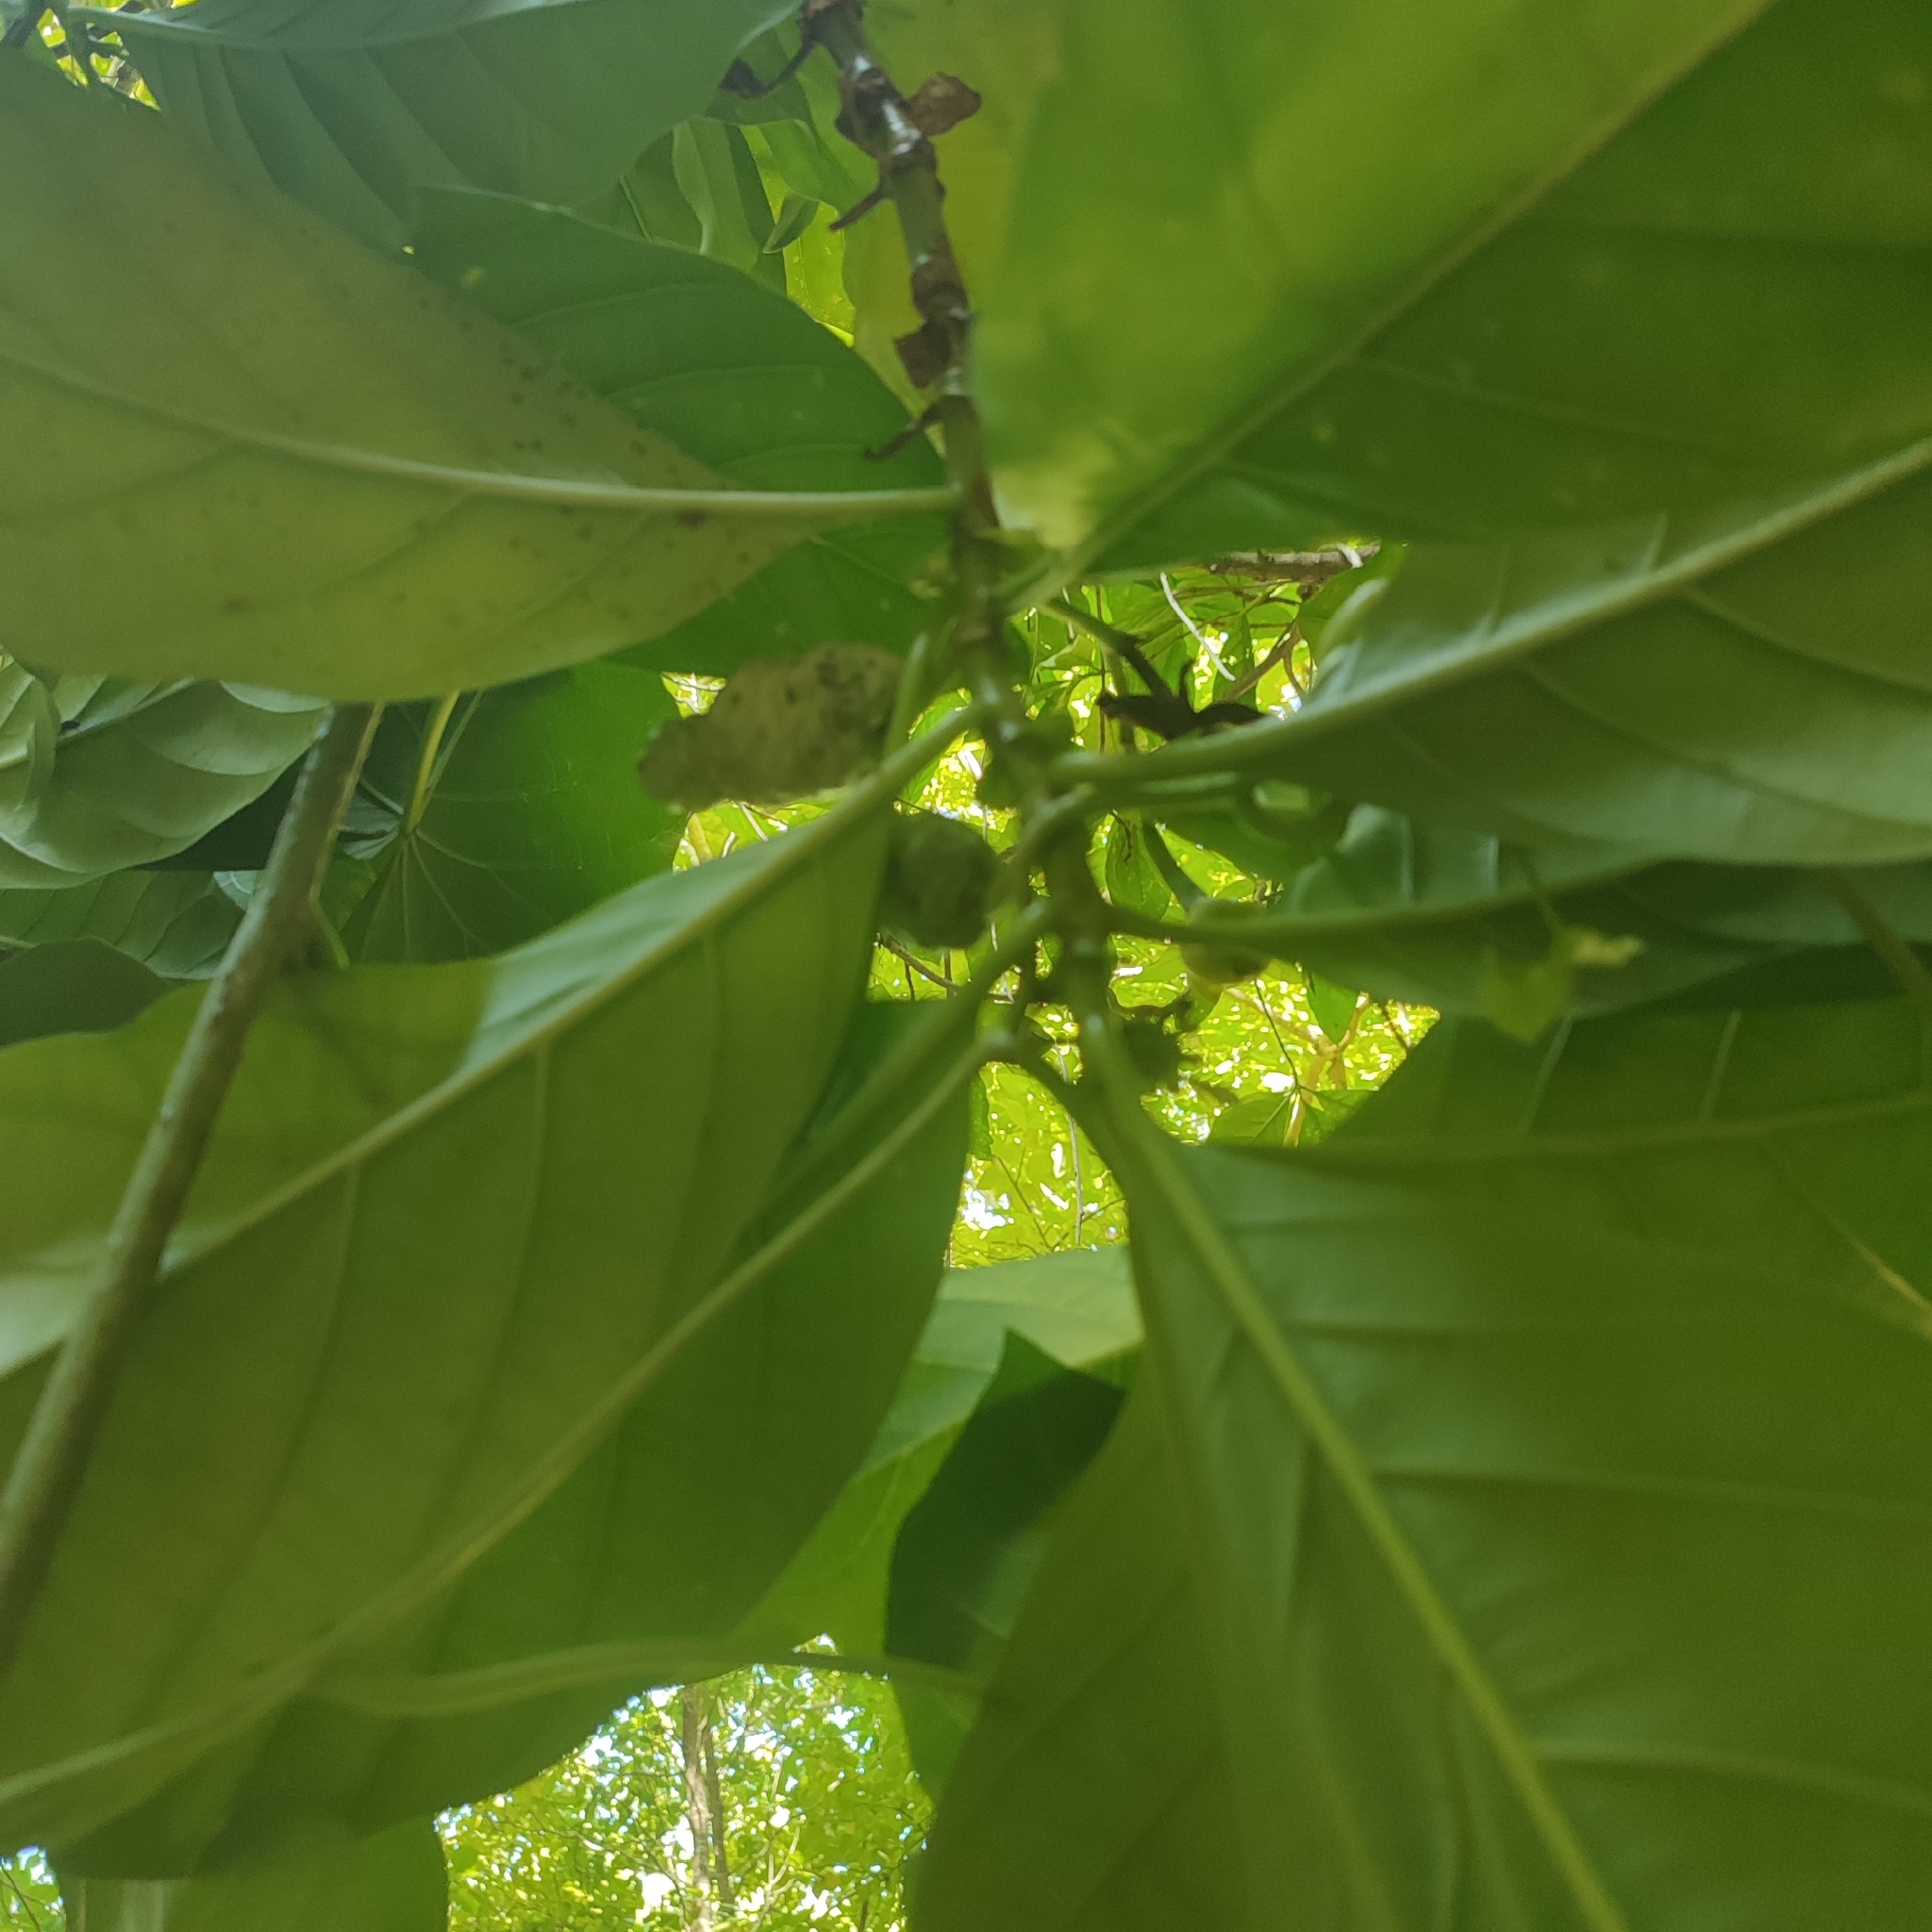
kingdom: Plantae
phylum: Tracheophyta
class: Magnoliopsida
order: Gentianales
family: Rubiaceae
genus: Morinda
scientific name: Morinda citrifolia
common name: Indian-mulberry
